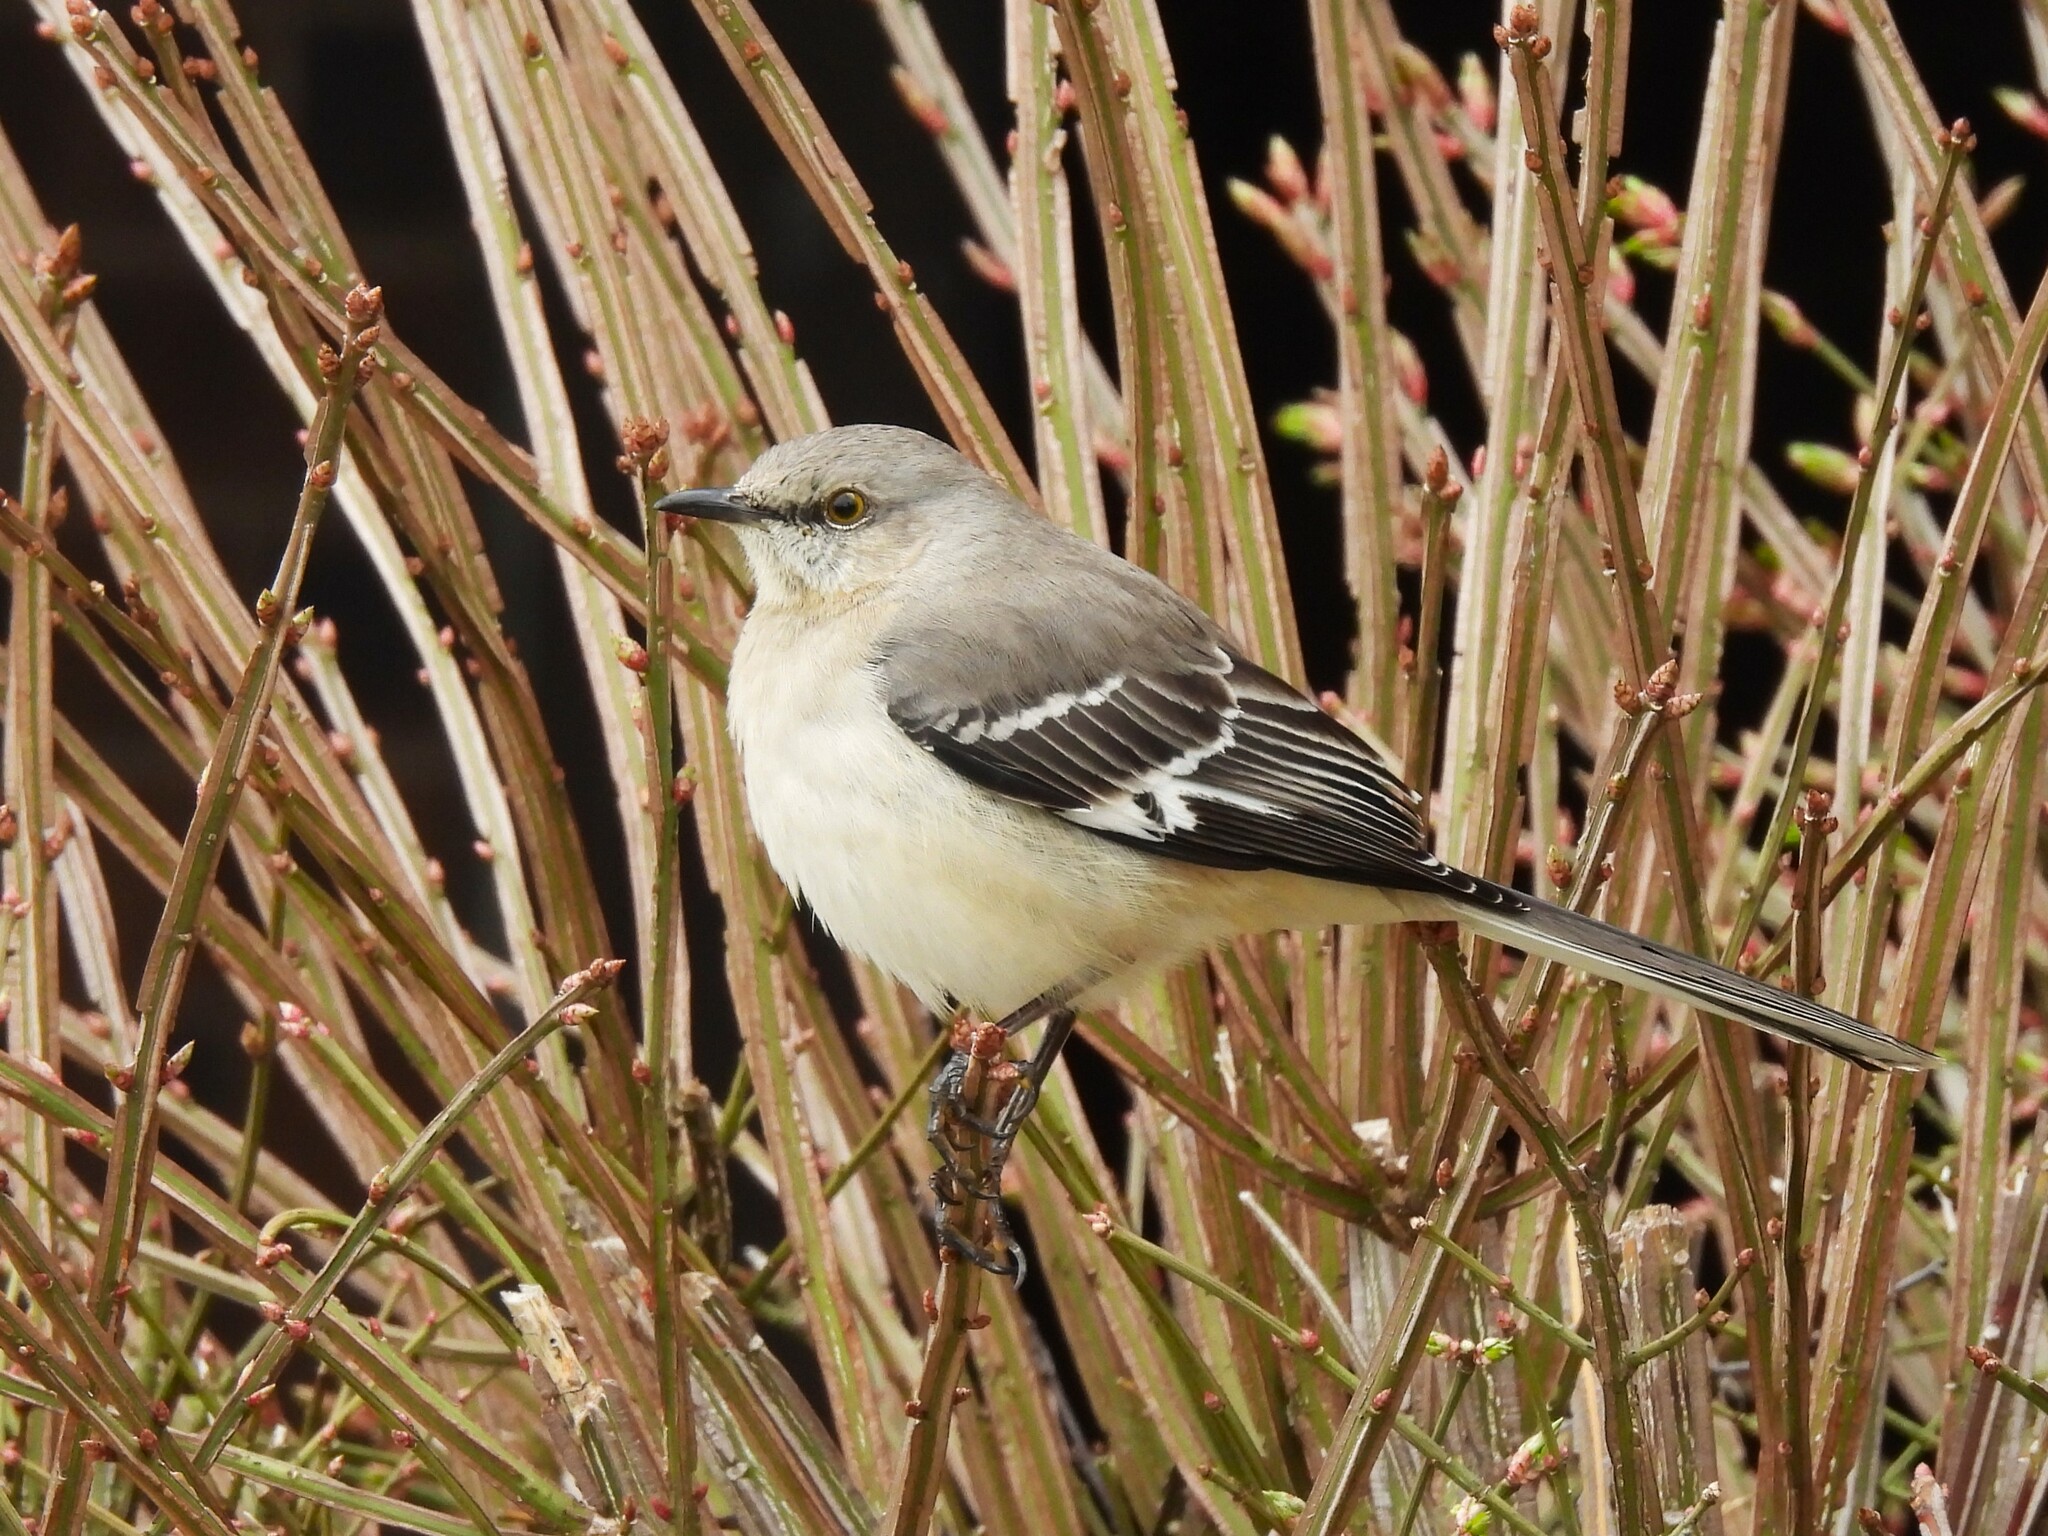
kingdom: Animalia
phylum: Chordata
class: Aves
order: Passeriformes
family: Mimidae
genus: Mimus
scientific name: Mimus polyglottos
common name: Northern mockingbird
